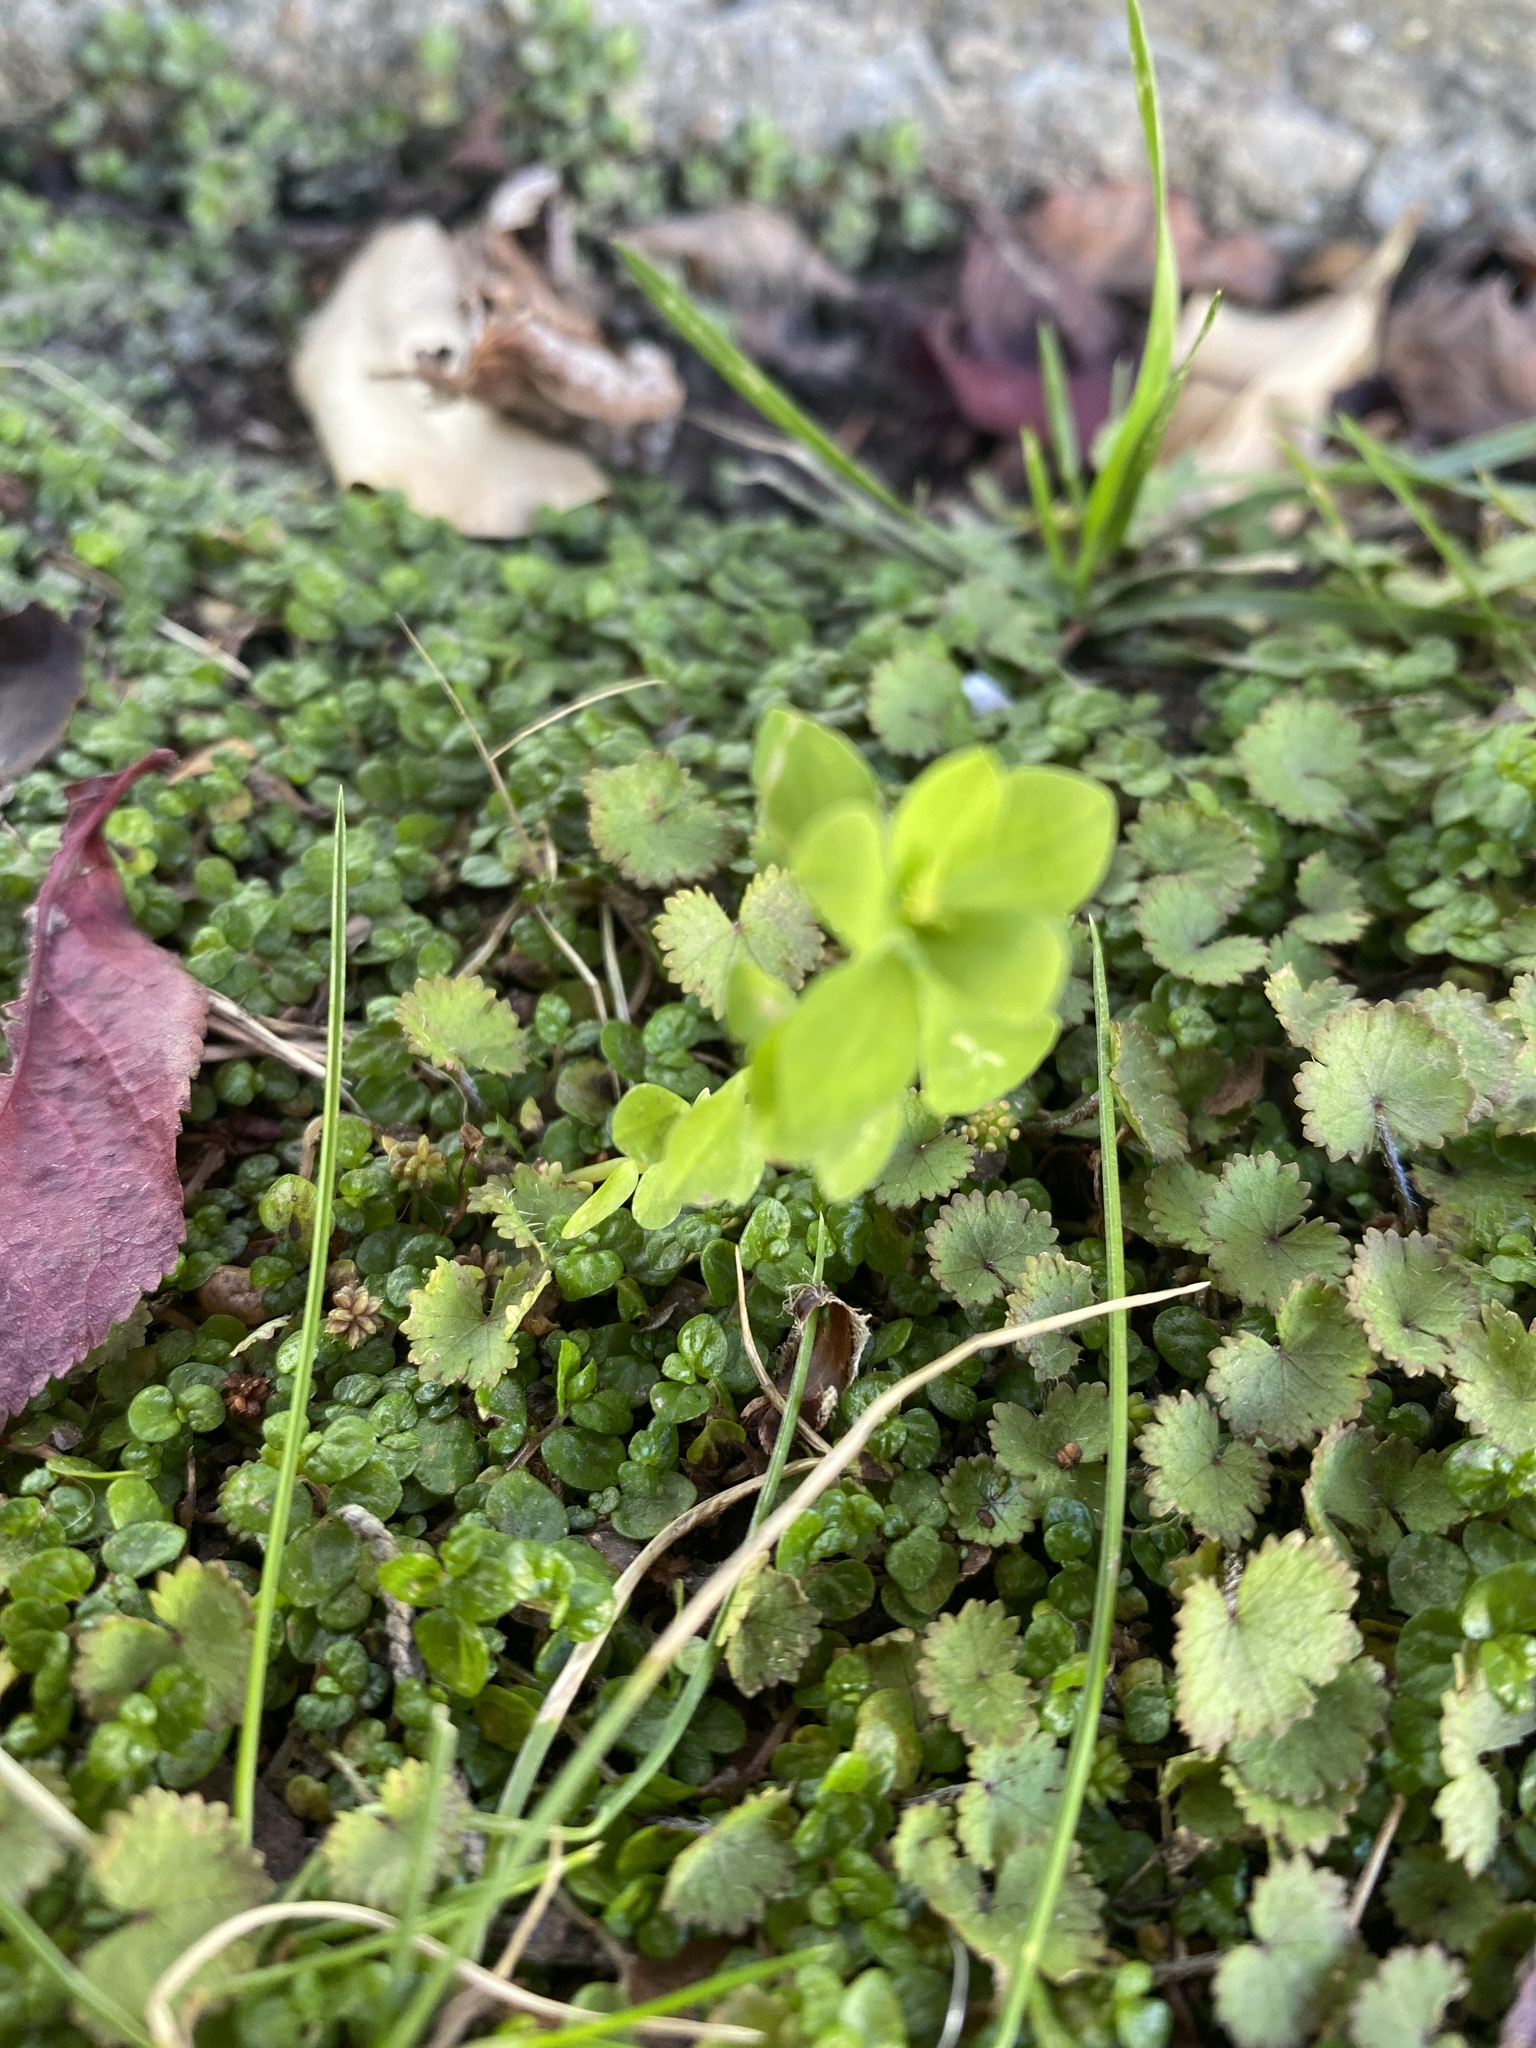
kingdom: Plantae
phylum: Tracheophyta
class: Magnoliopsida
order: Malpighiales
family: Euphorbiaceae
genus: Euphorbia
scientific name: Euphorbia peplus
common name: Petty spurge
